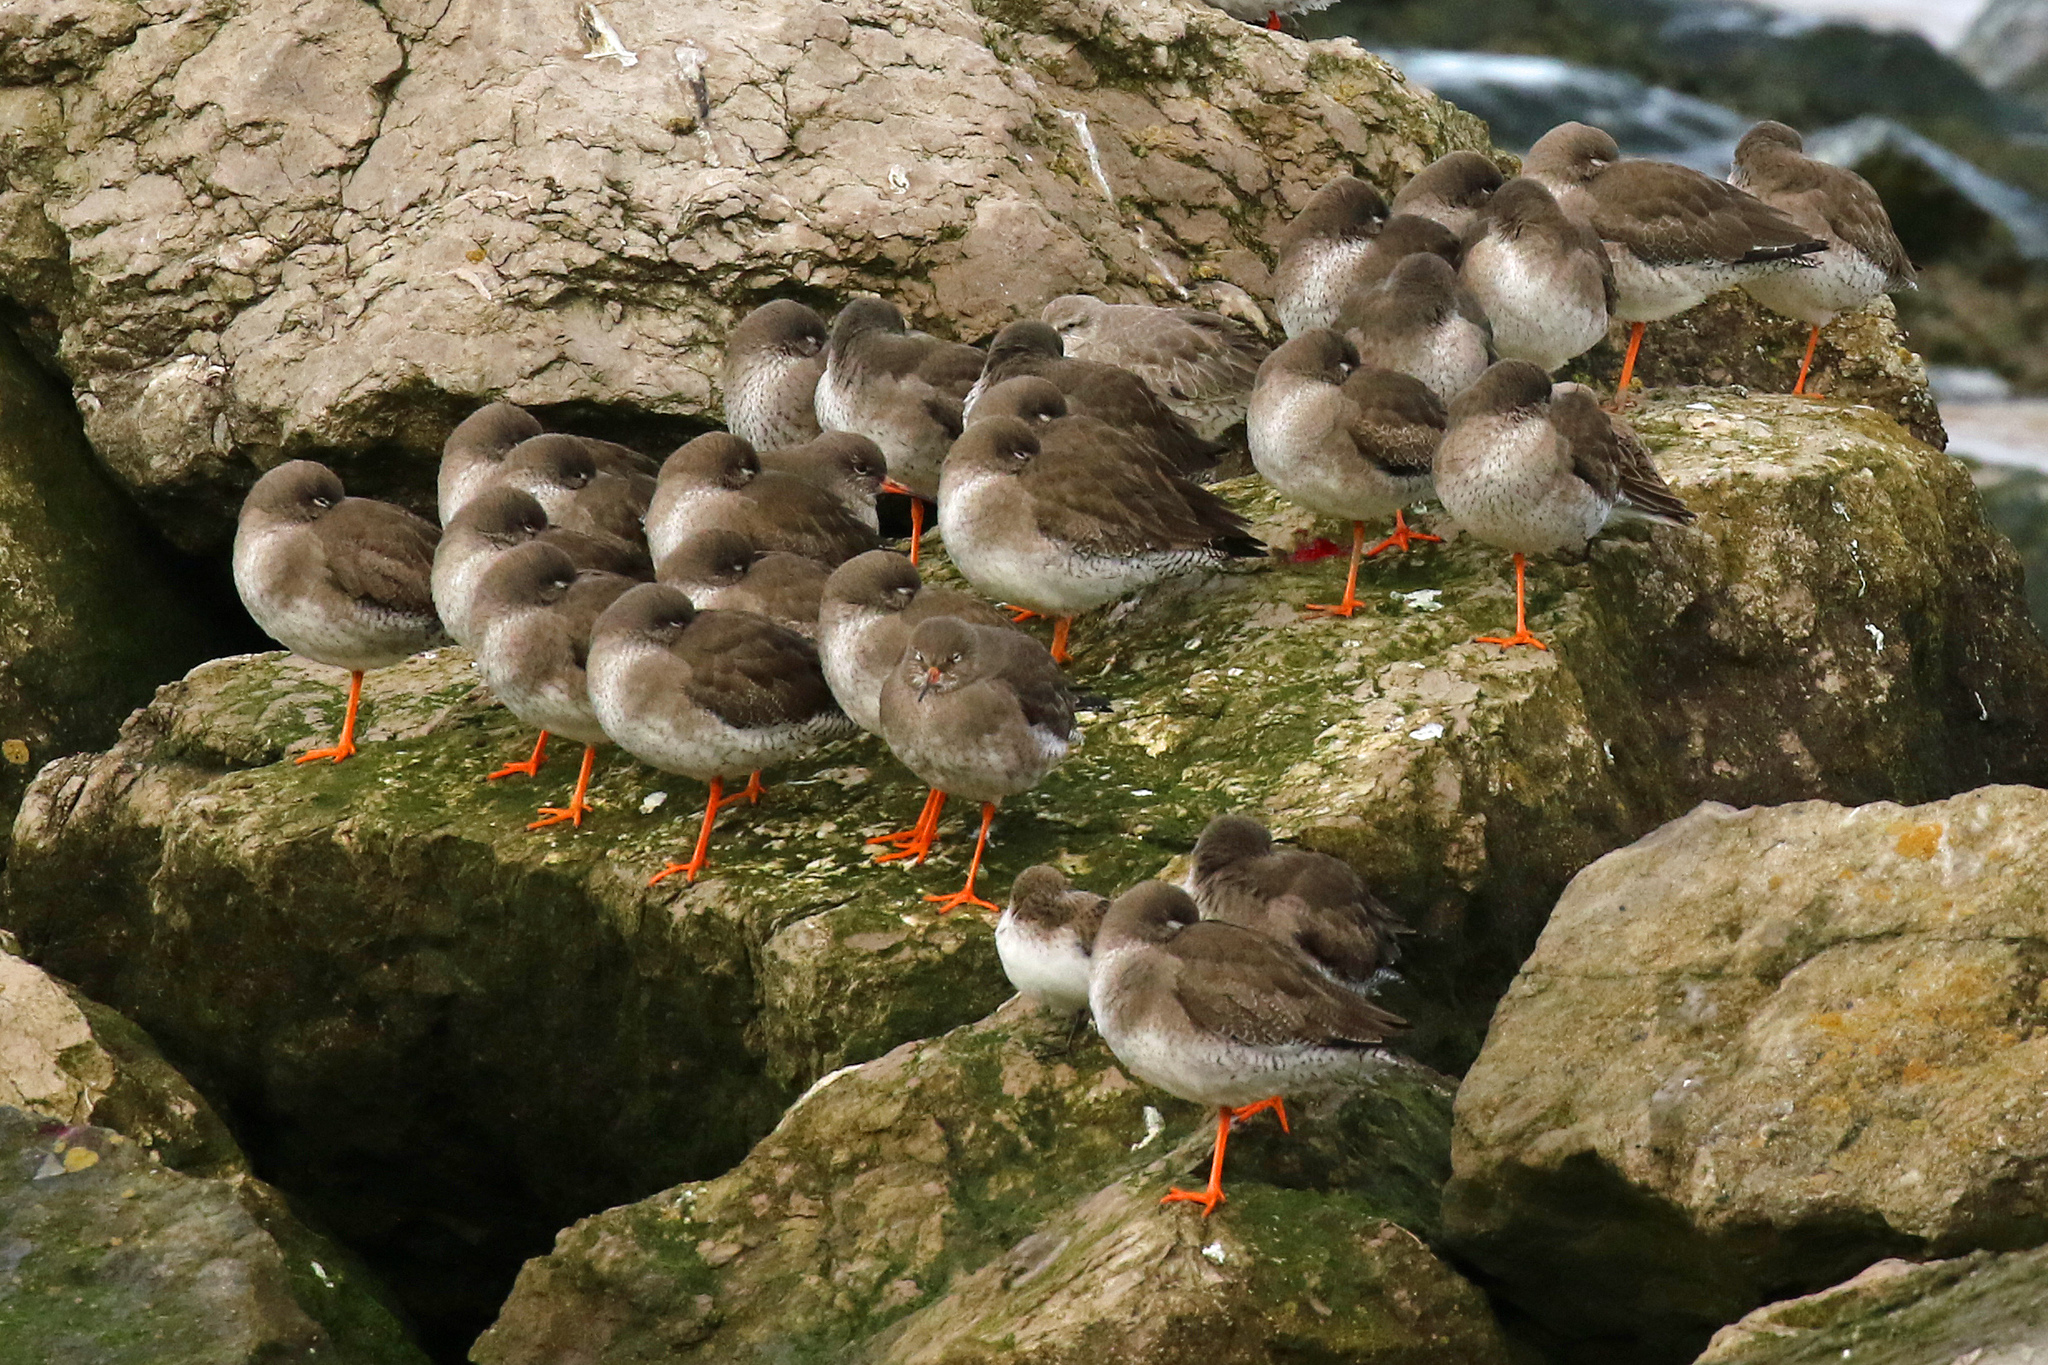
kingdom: Animalia
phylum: Chordata
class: Aves
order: Charadriiformes
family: Scolopacidae
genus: Tringa
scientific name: Tringa totanus
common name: Common redshank
